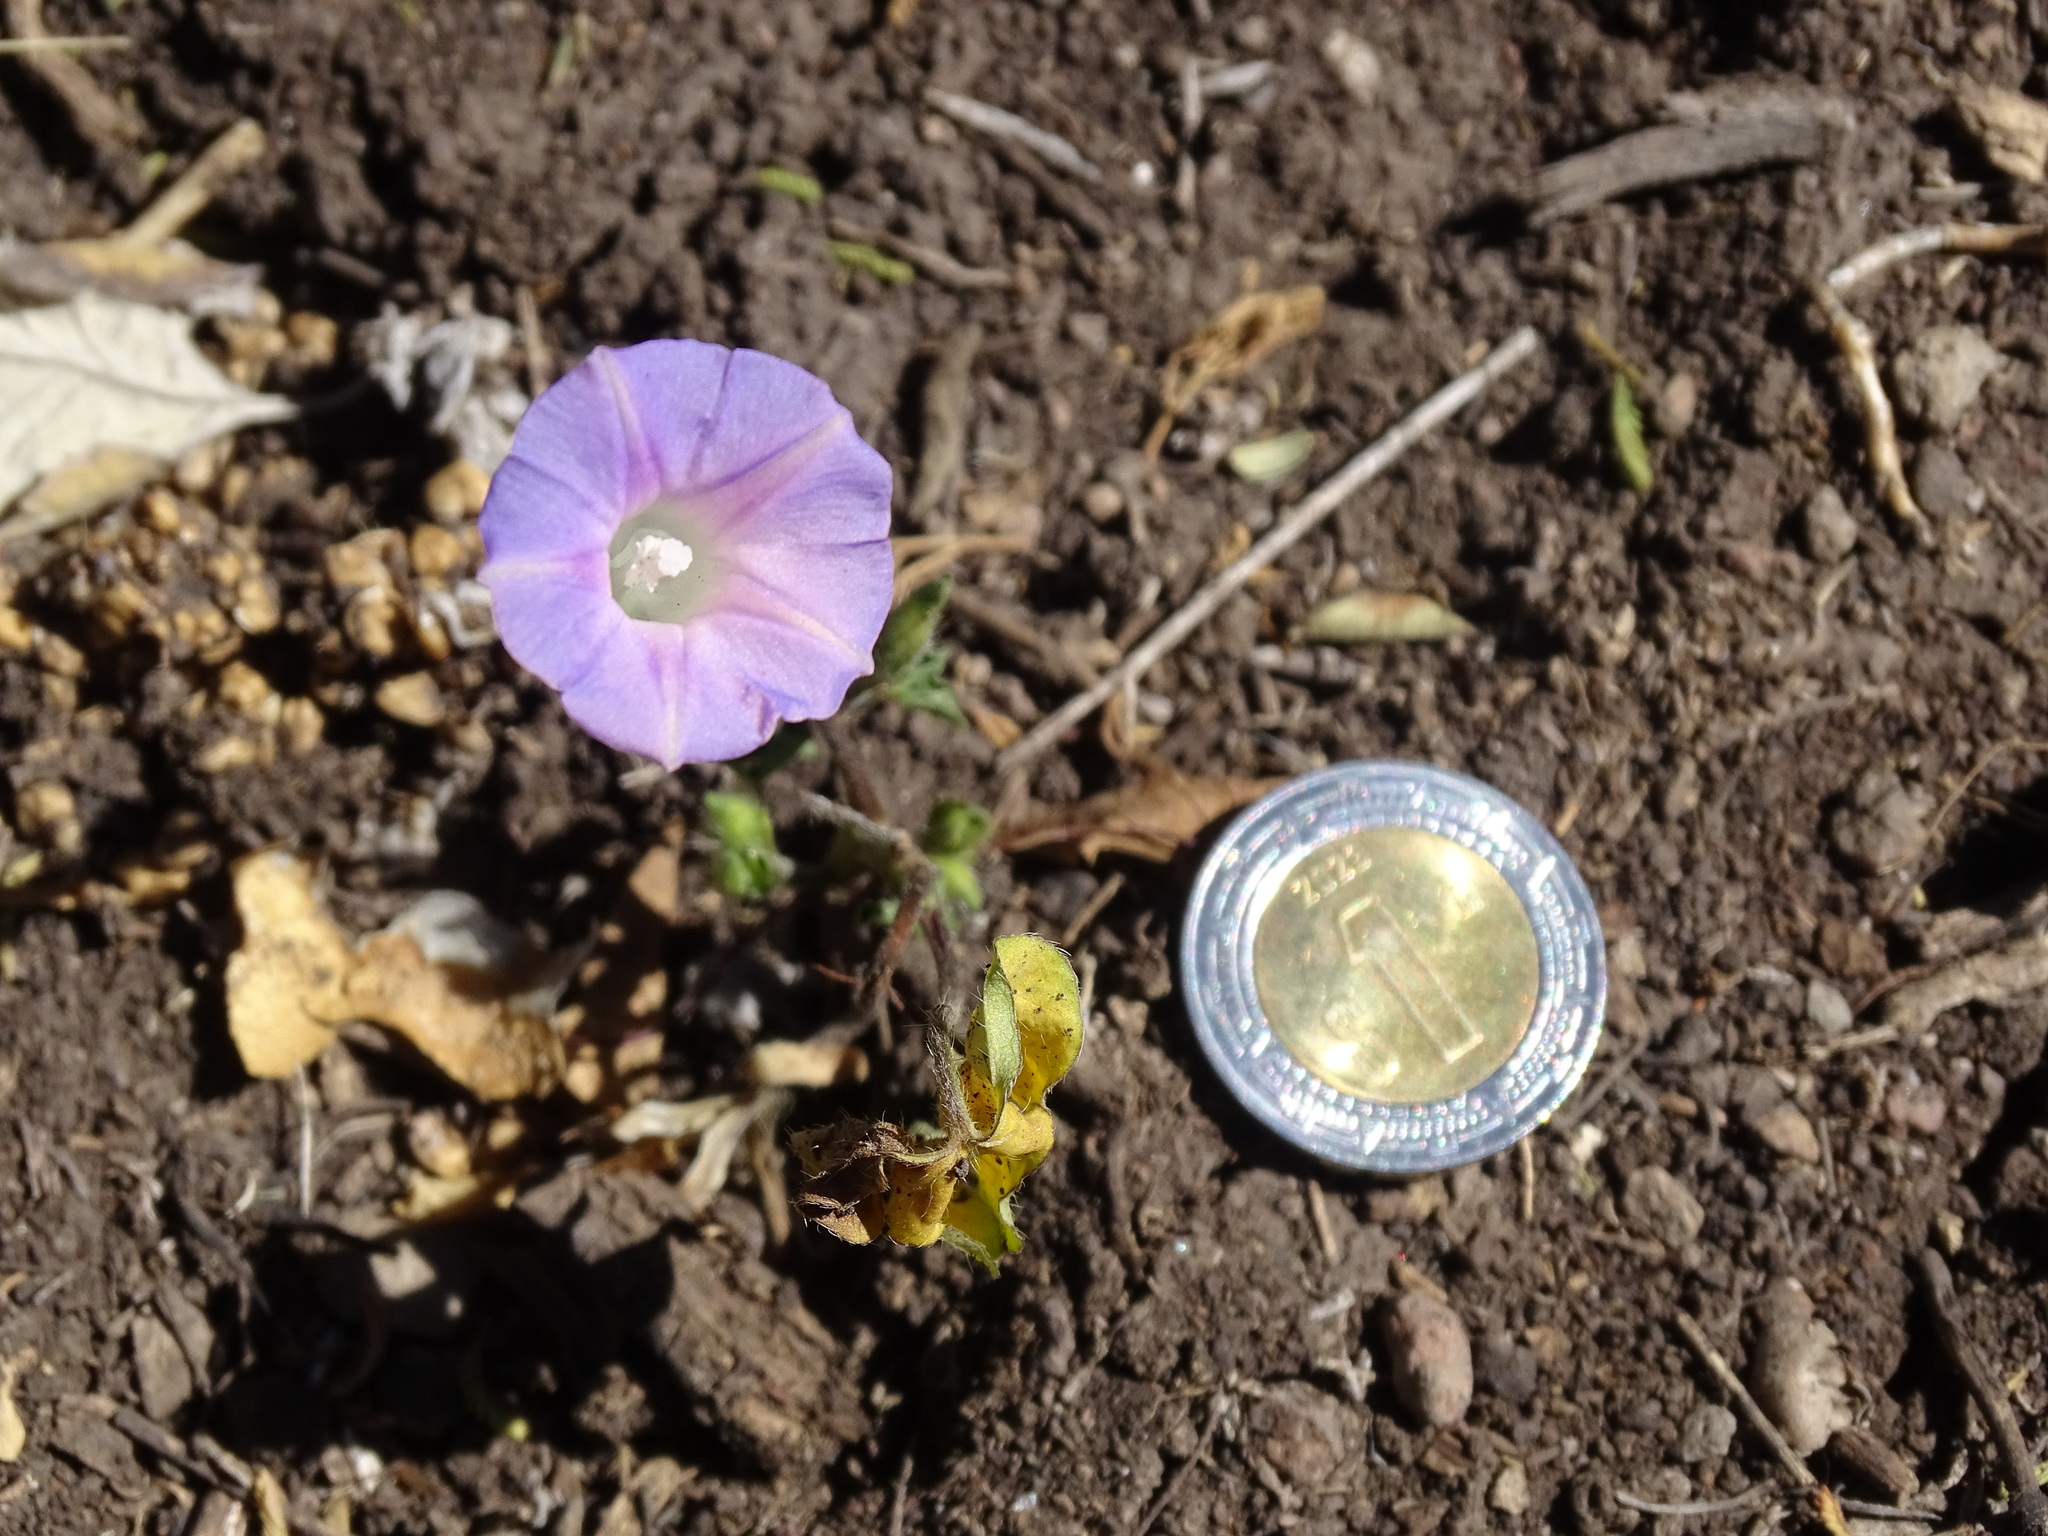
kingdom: Plantae
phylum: Tracheophyta
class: Magnoliopsida
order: Solanales
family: Convolvulaceae
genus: Ipomoea
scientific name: Ipomoea purpurea
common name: Common morning-glory
